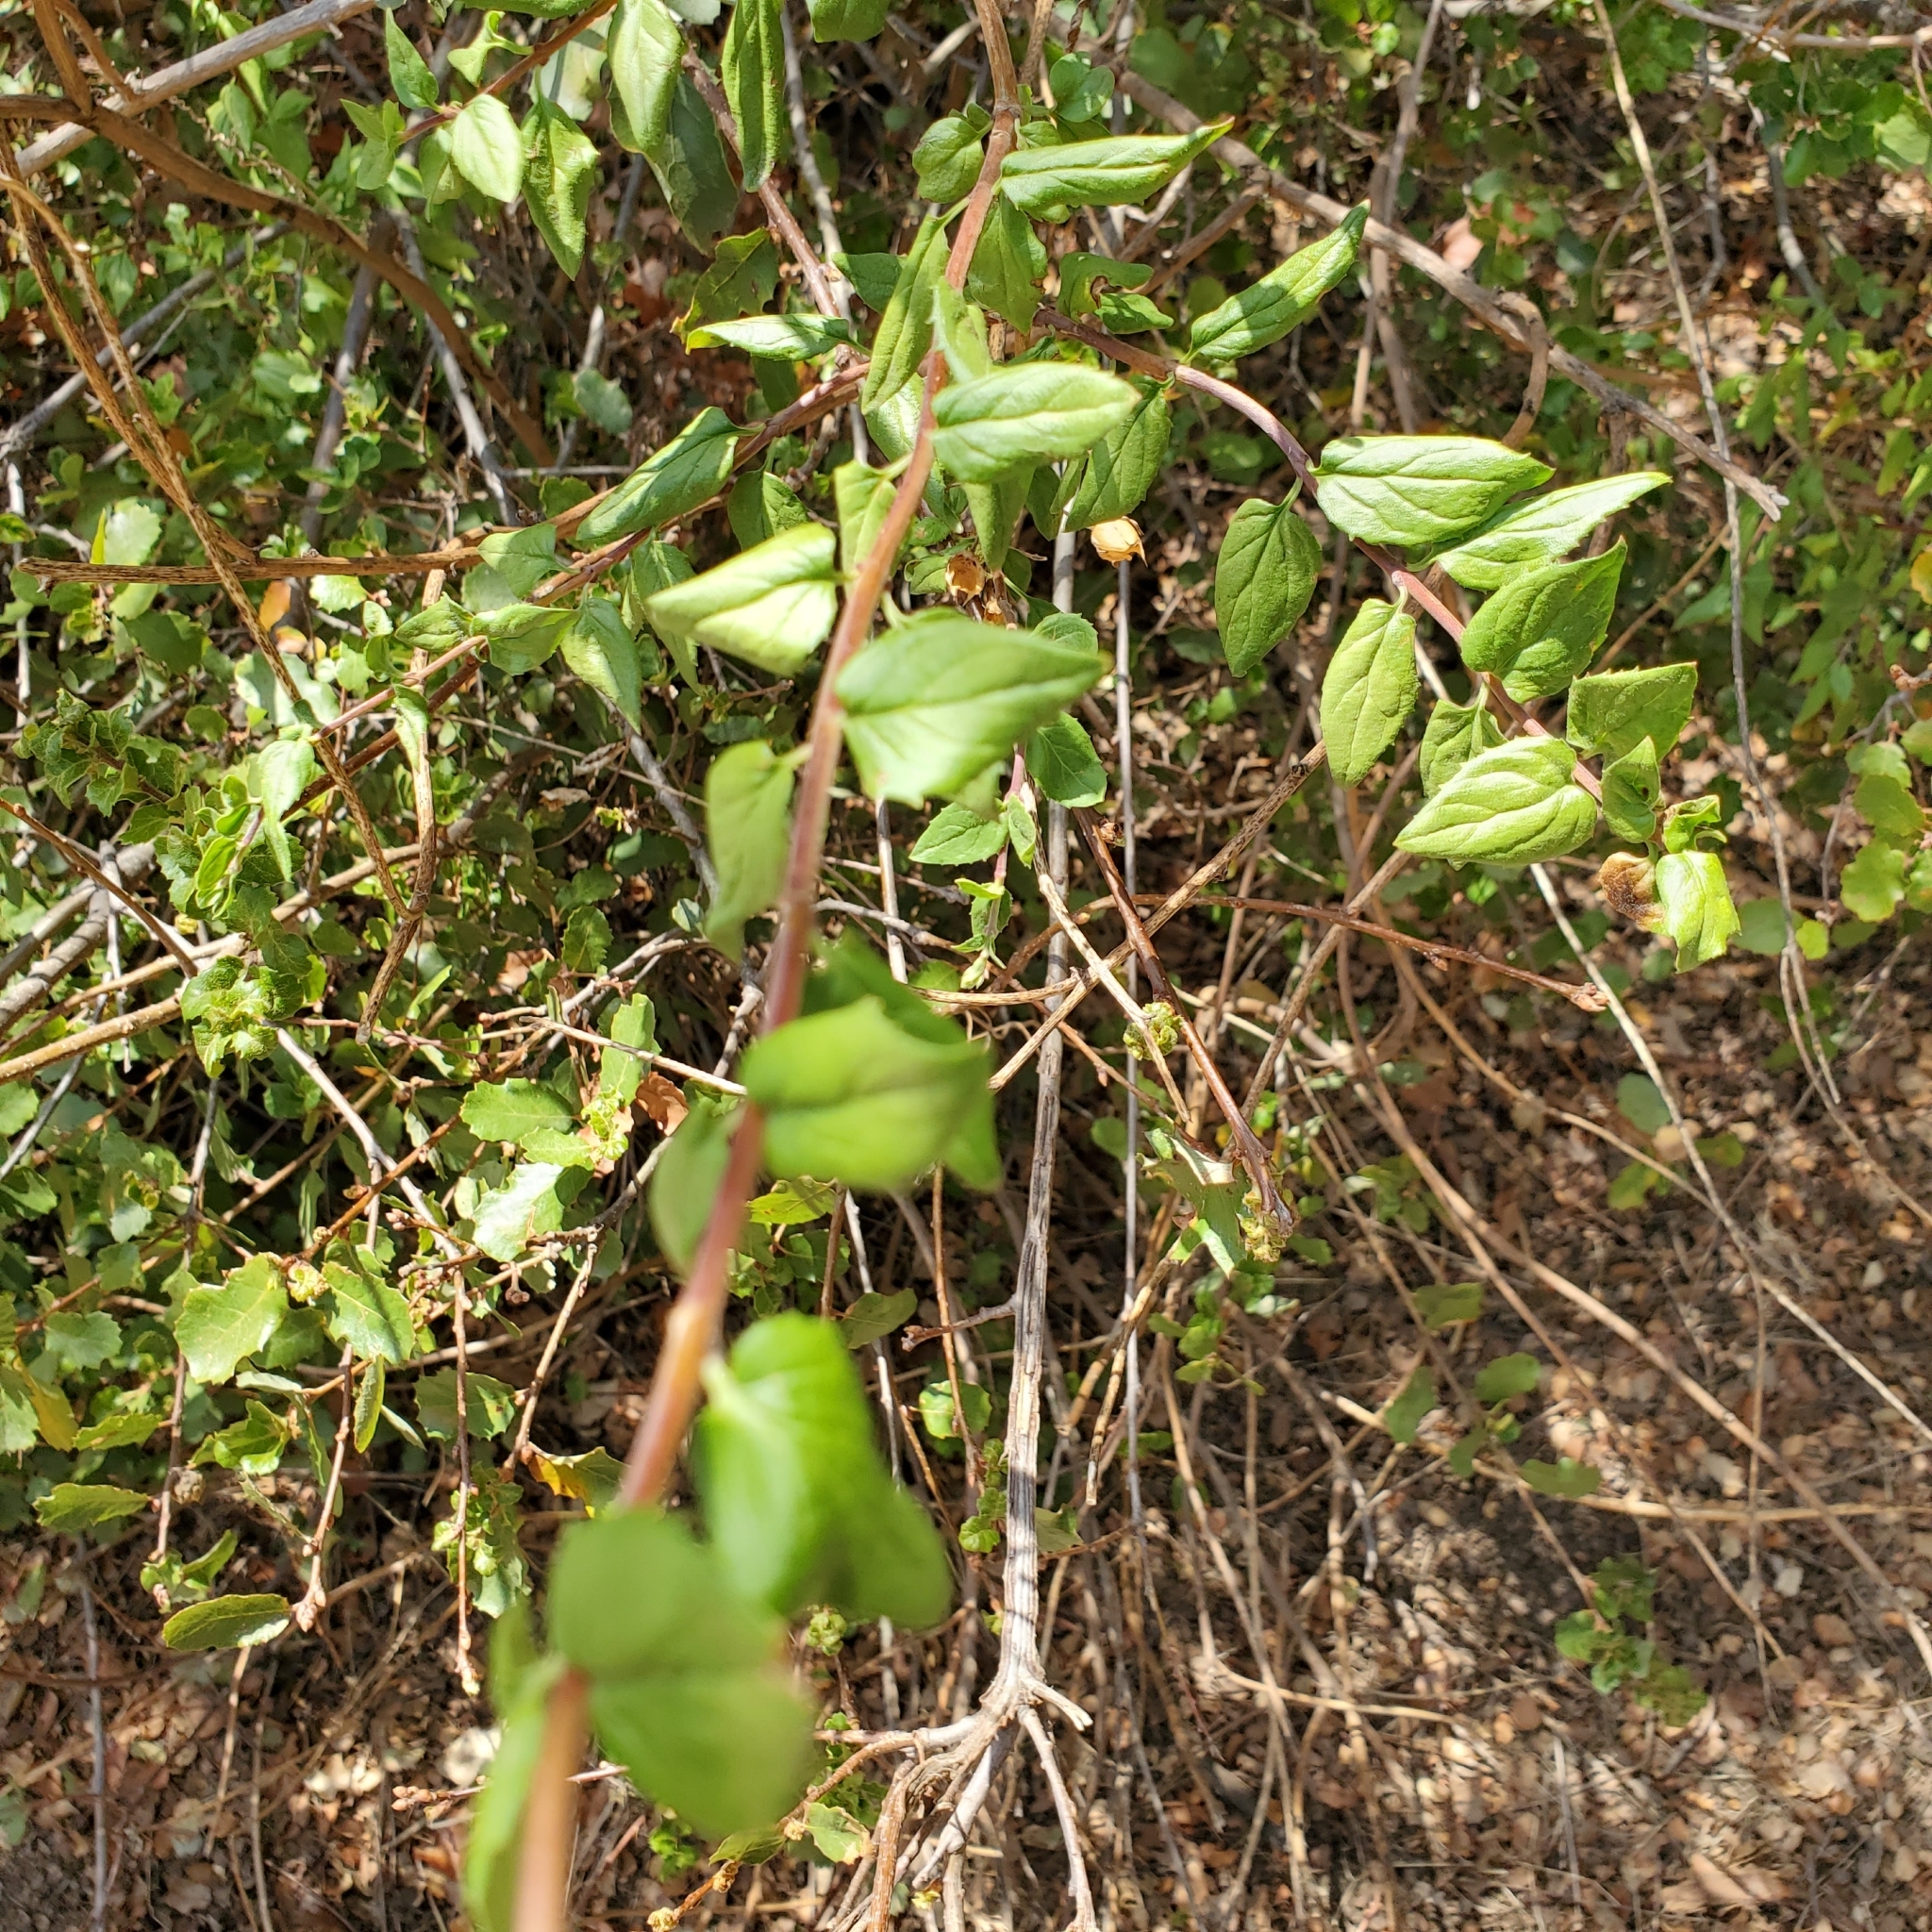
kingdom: Plantae
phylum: Tracheophyta
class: Magnoliopsida
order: Lamiales
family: Plantaginaceae
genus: Keckiella
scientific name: Keckiella cordifolia
